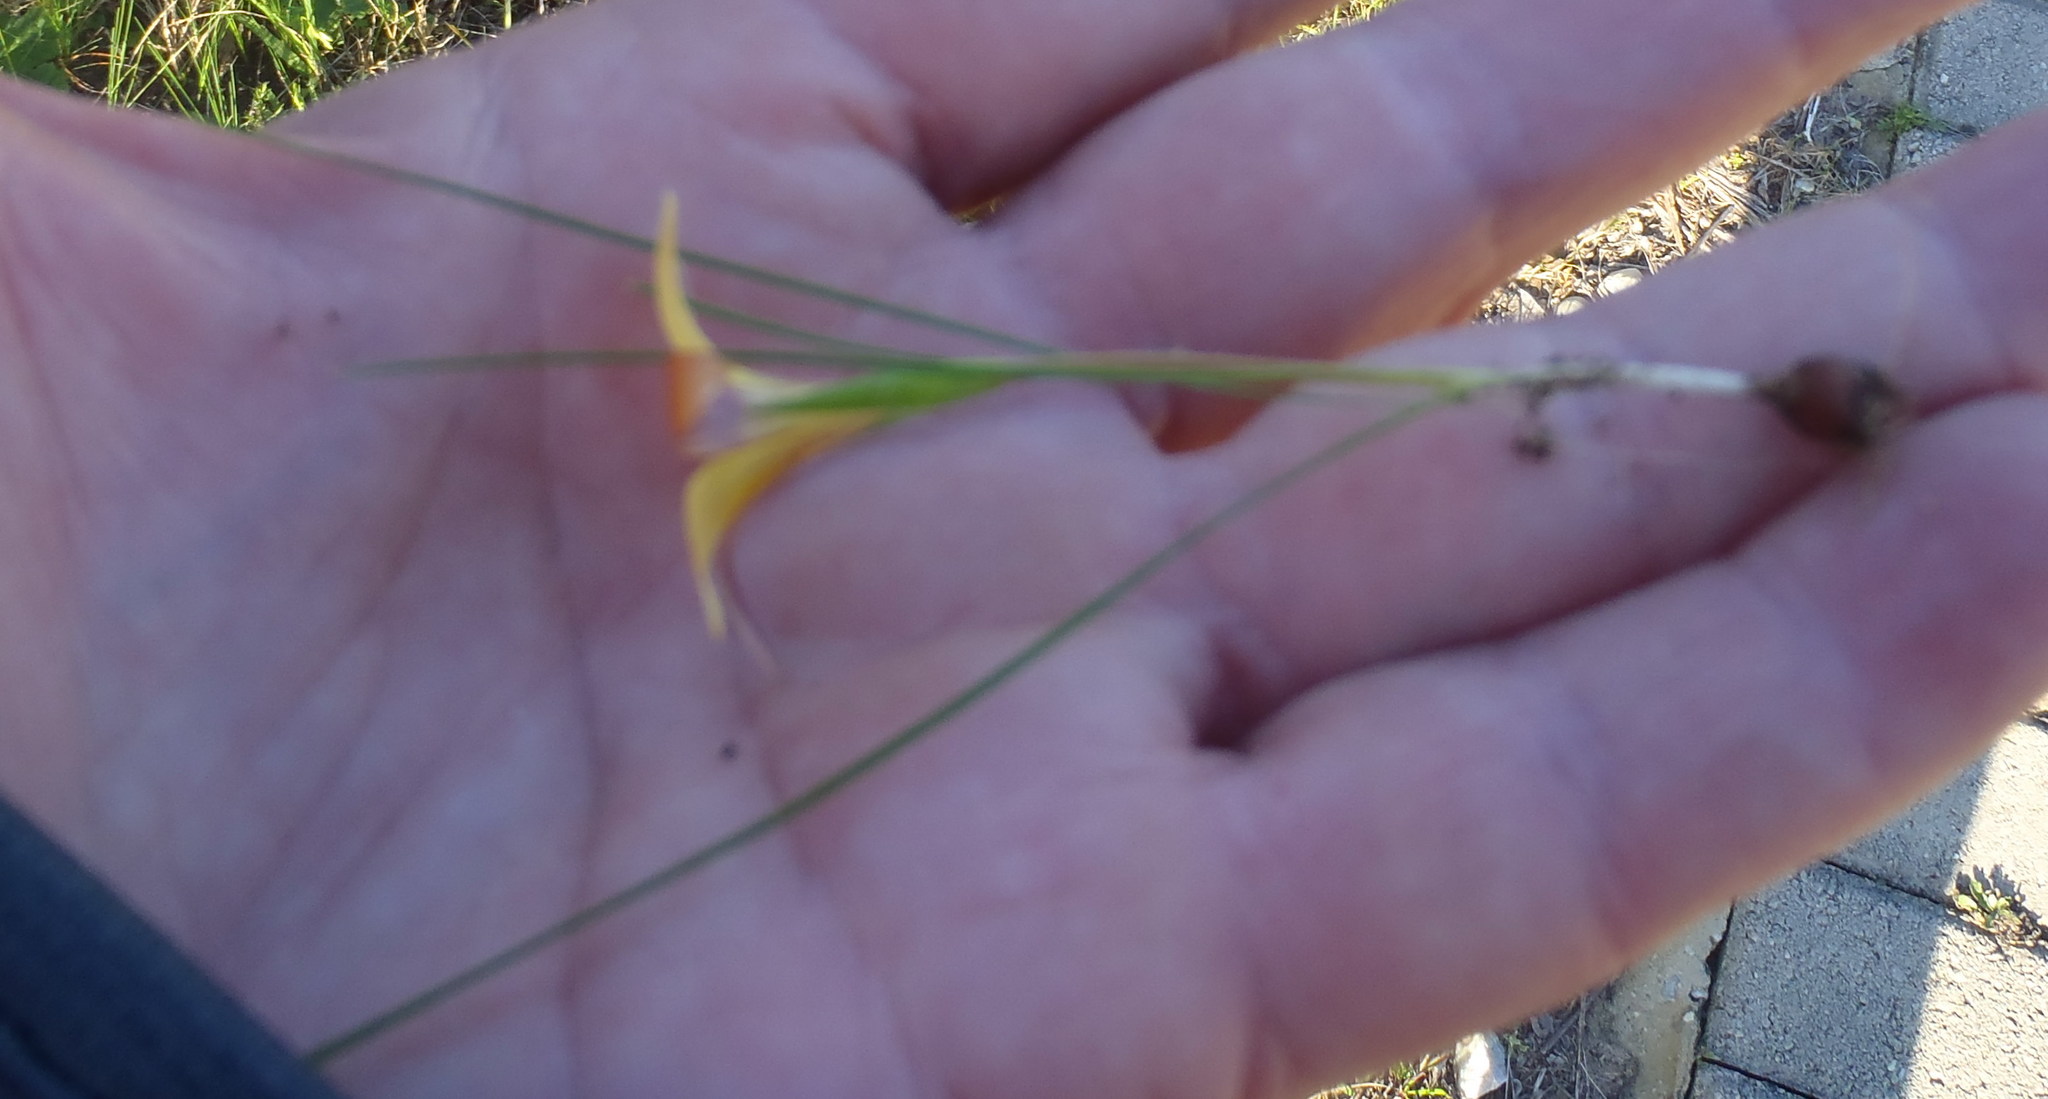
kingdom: Plantae
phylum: Tracheophyta
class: Liliopsida
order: Asparagales
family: Iridaceae
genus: Romulea
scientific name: Romulea setifolia
